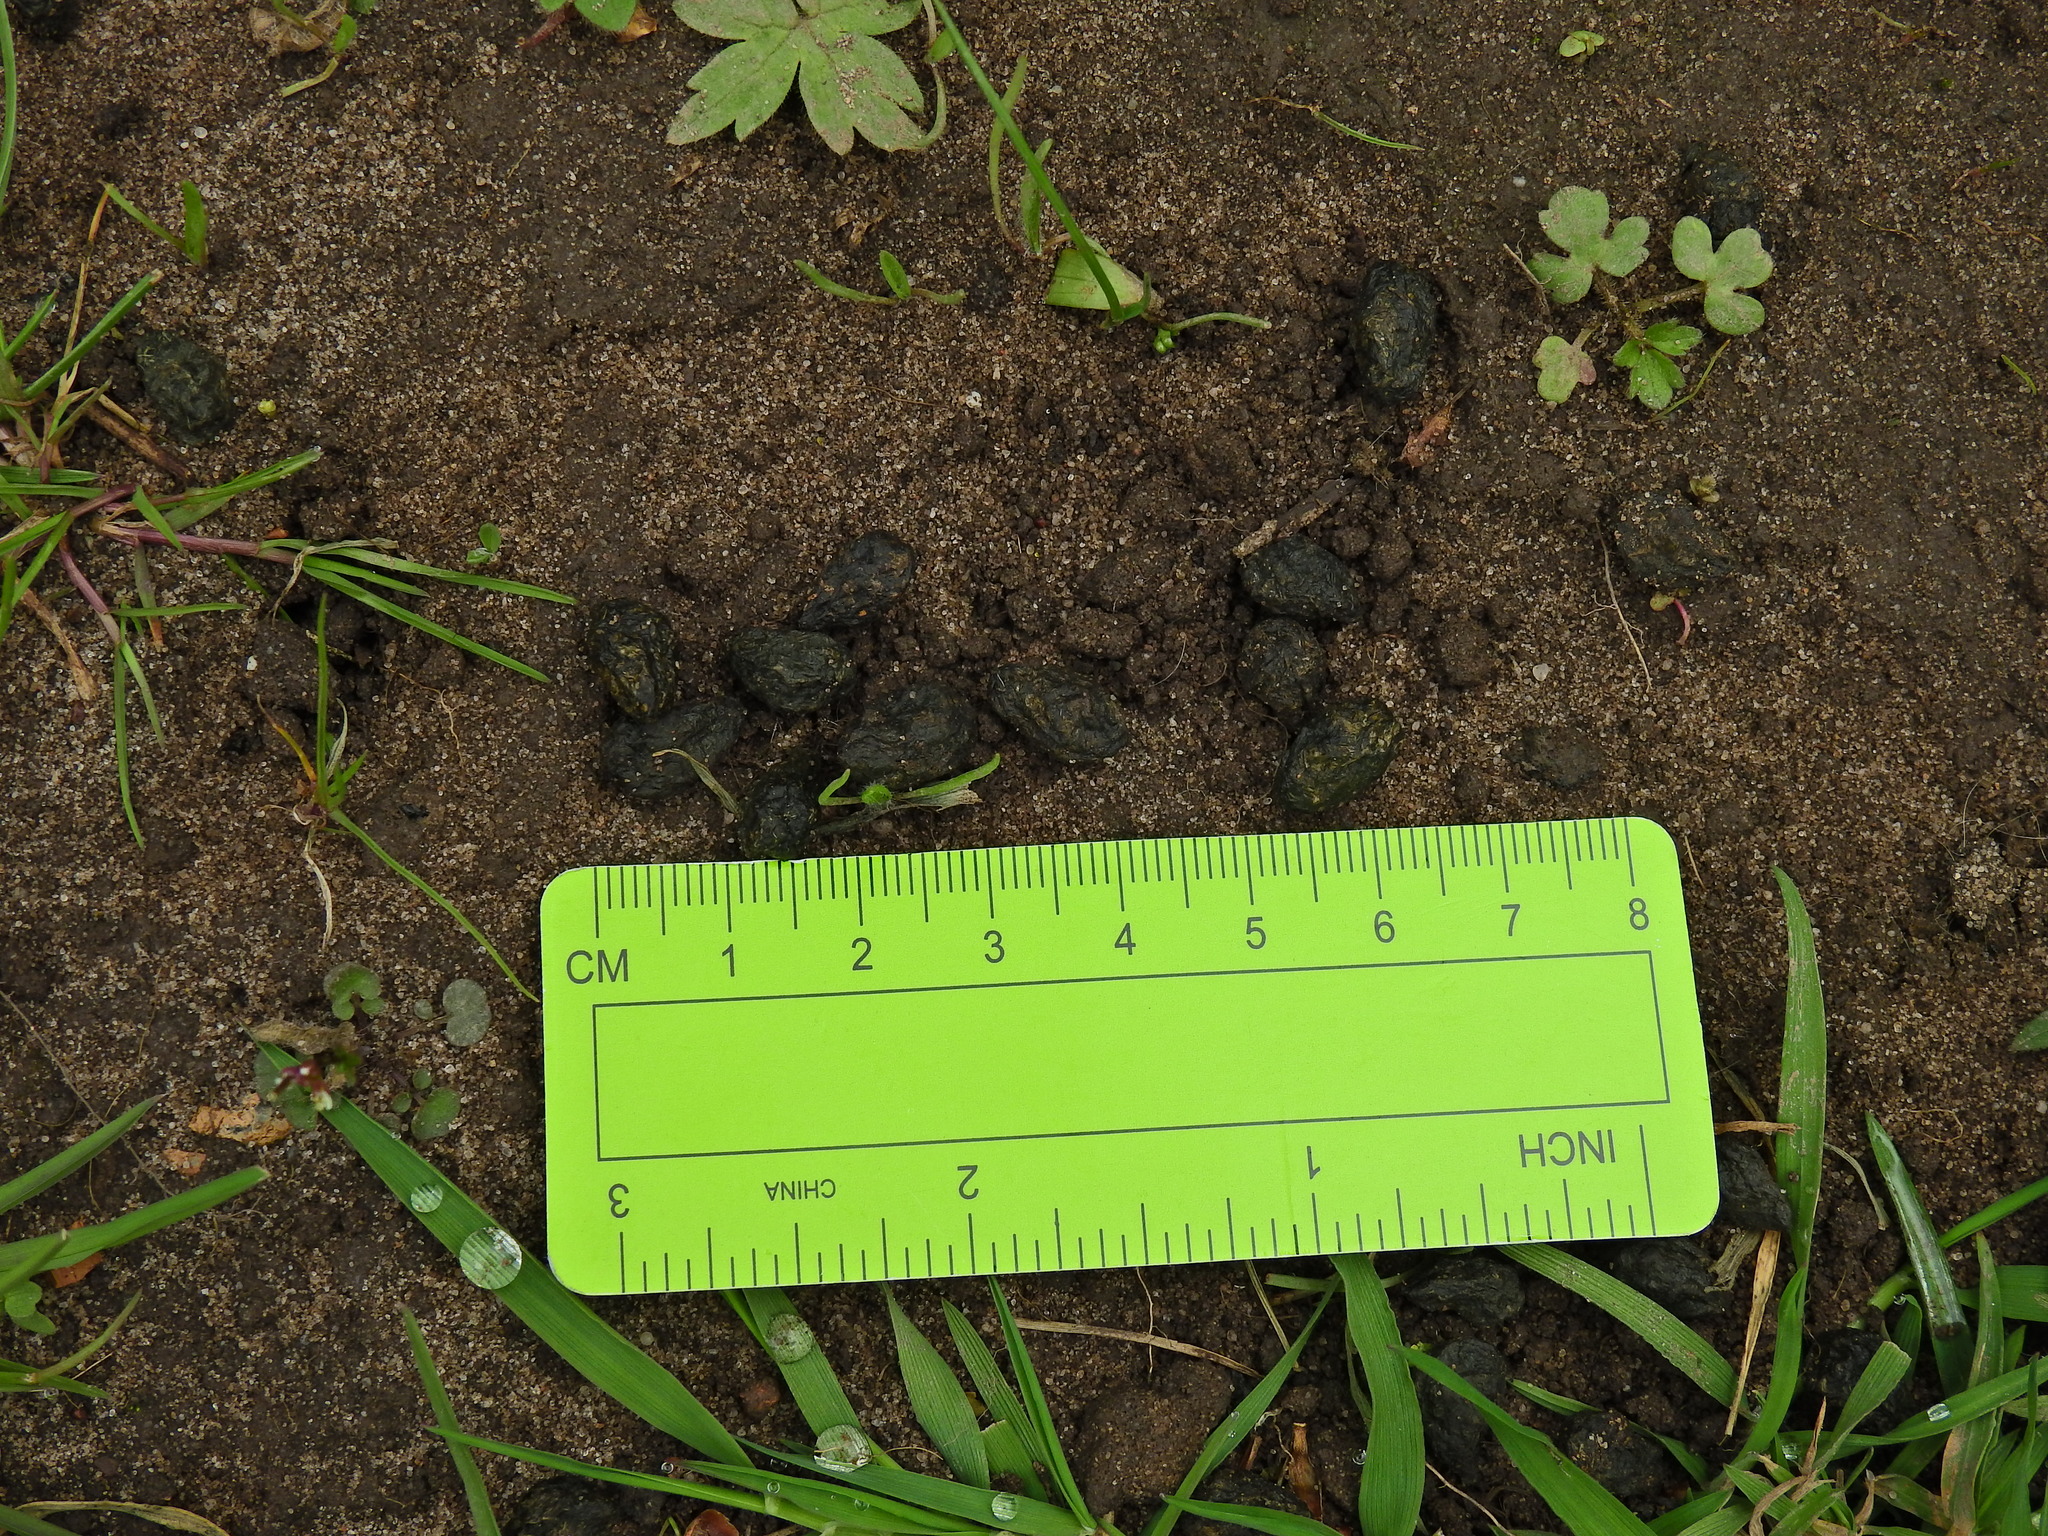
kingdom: Animalia
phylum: Chordata
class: Mammalia
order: Lagomorpha
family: Leporidae
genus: Oryctolagus
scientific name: Oryctolagus cuniculus
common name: European rabbit
